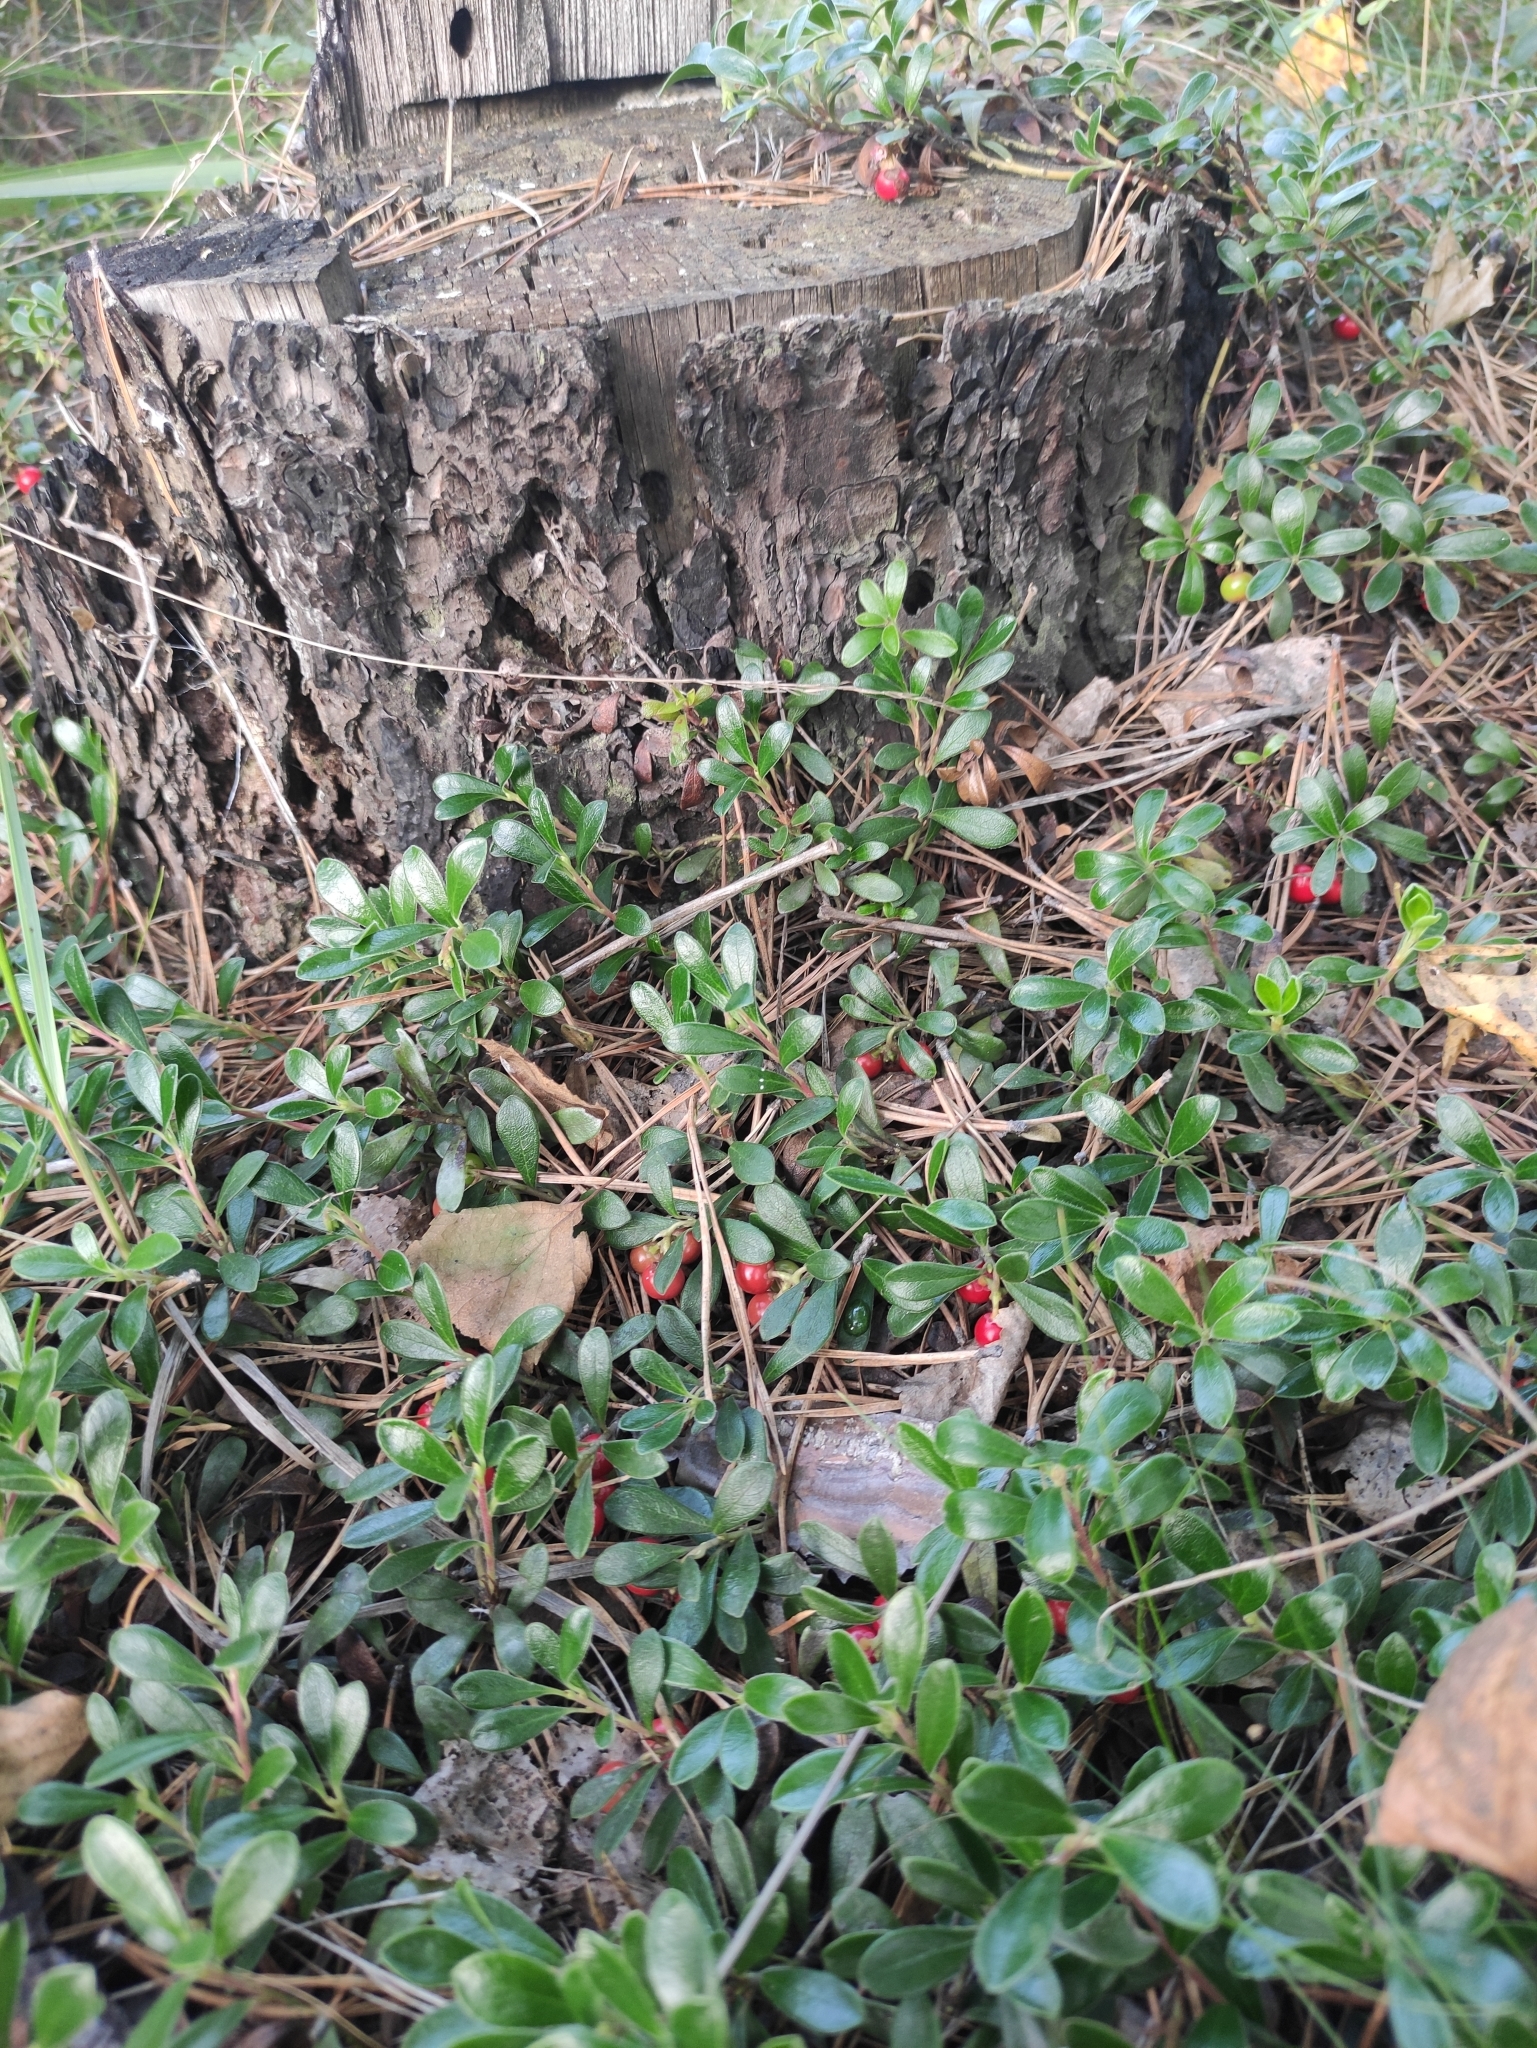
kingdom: Plantae
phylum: Tracheophyta
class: Magnoliopsida
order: Ericales
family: Ericaceae
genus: Arctostaphylos
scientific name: Arctostaphylos uva-ursi
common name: Bearberry
